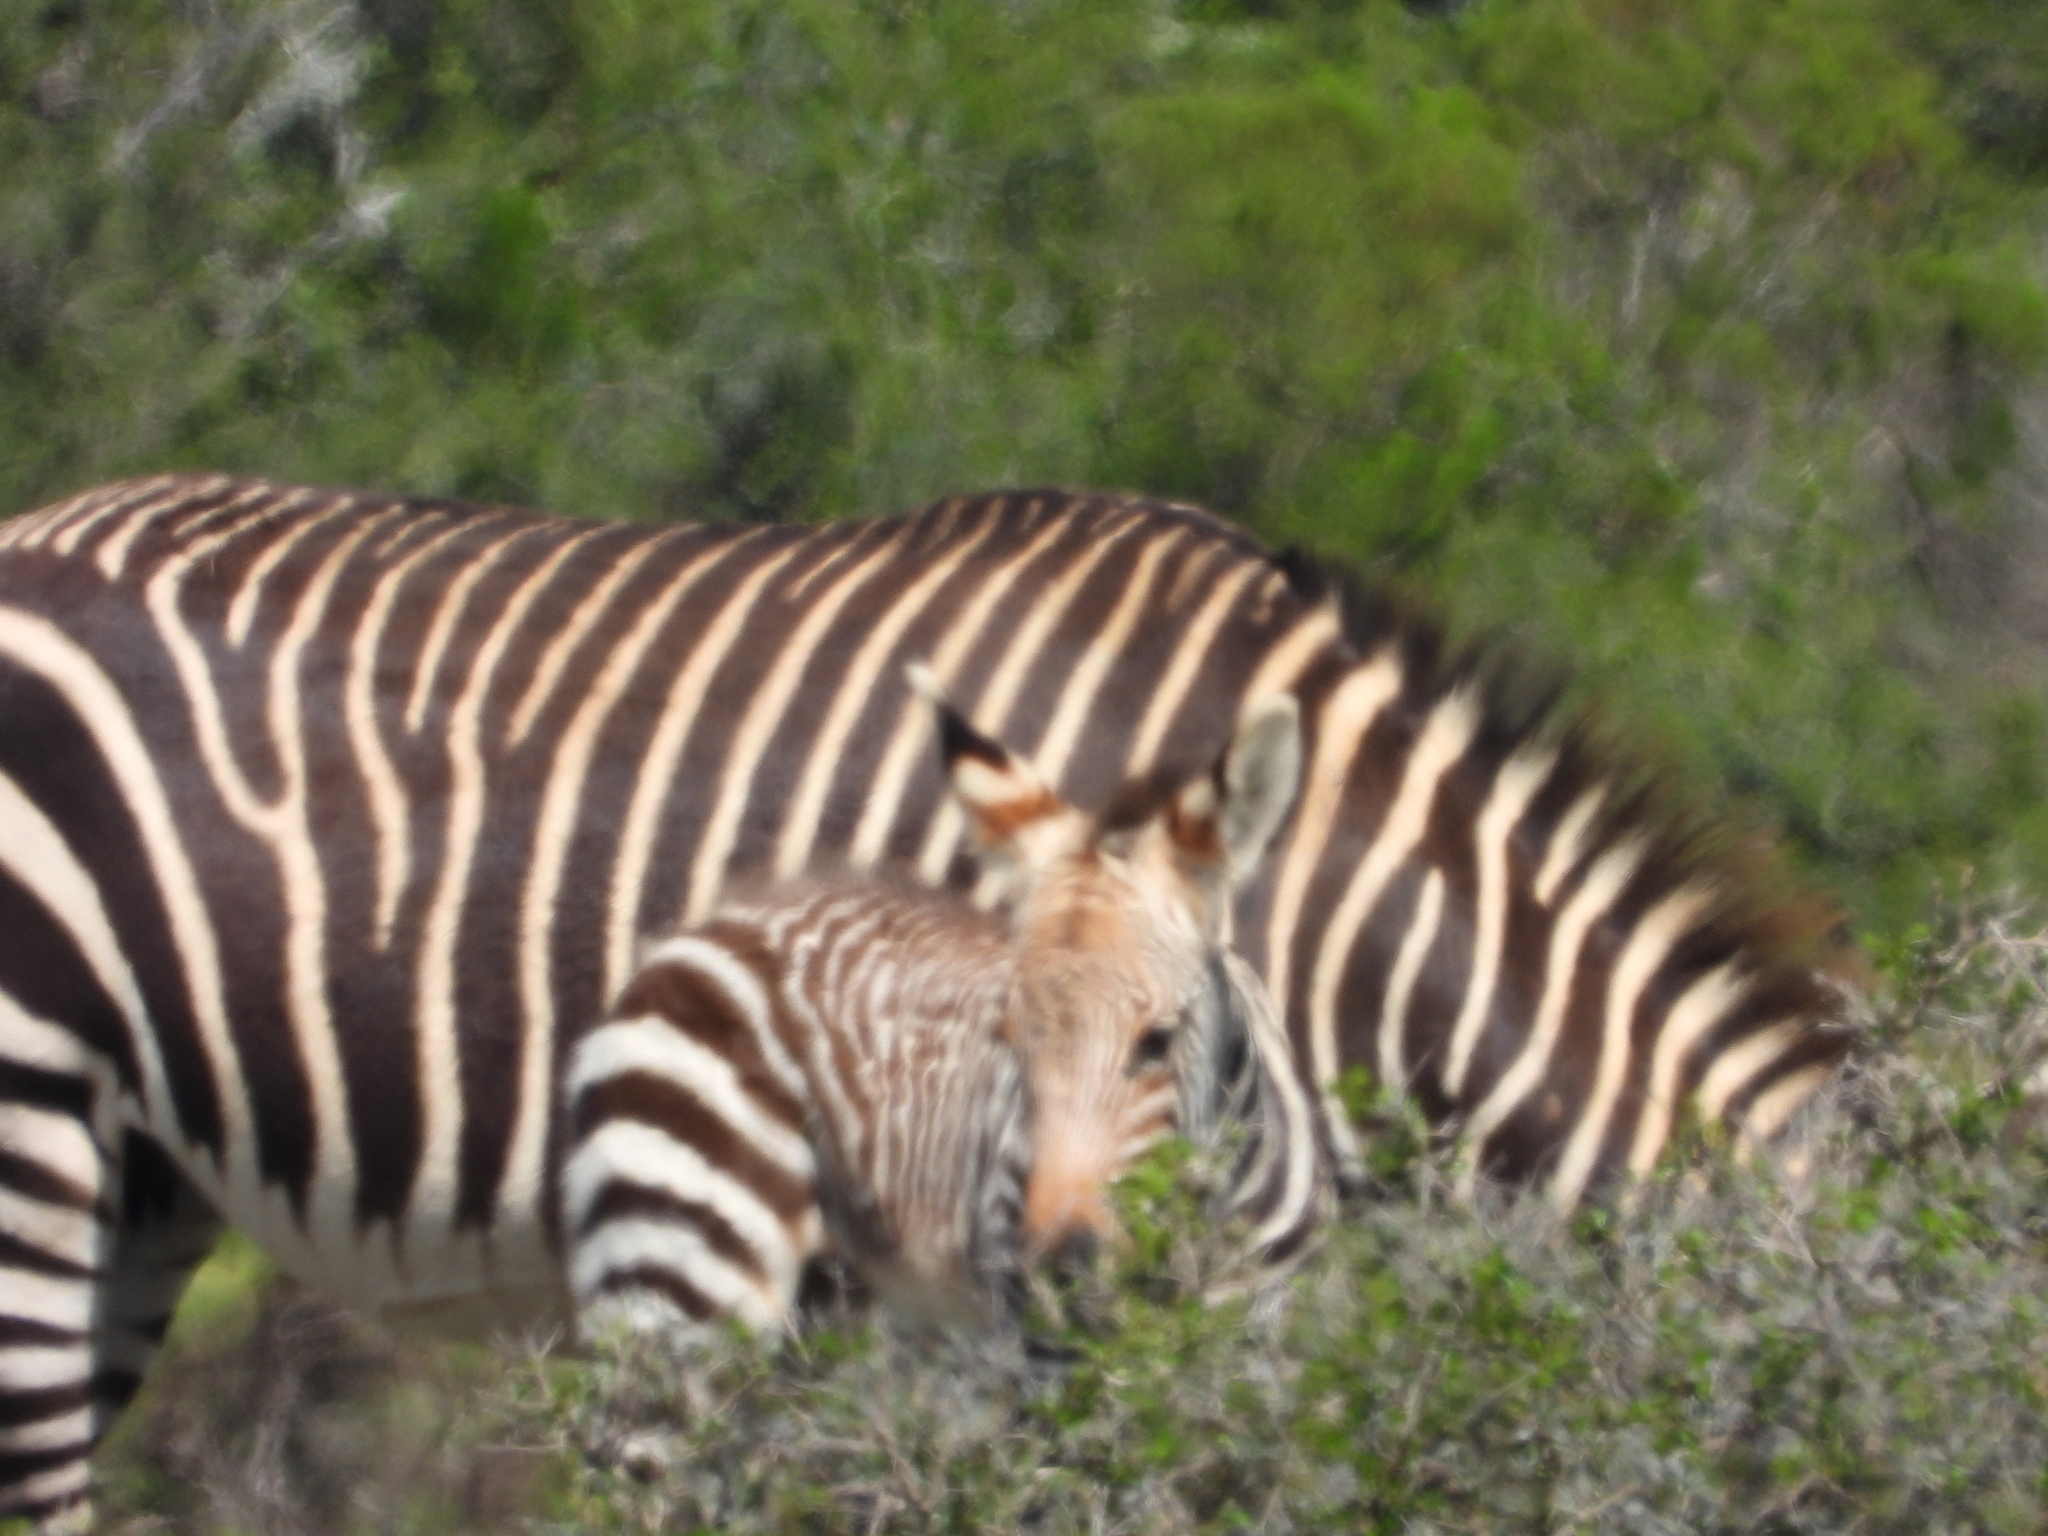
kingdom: Animalia
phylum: Chordata
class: Mammalia
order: Perissodactyla
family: Equidae
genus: Equus
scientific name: Equus zebra
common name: Mountain zebra
